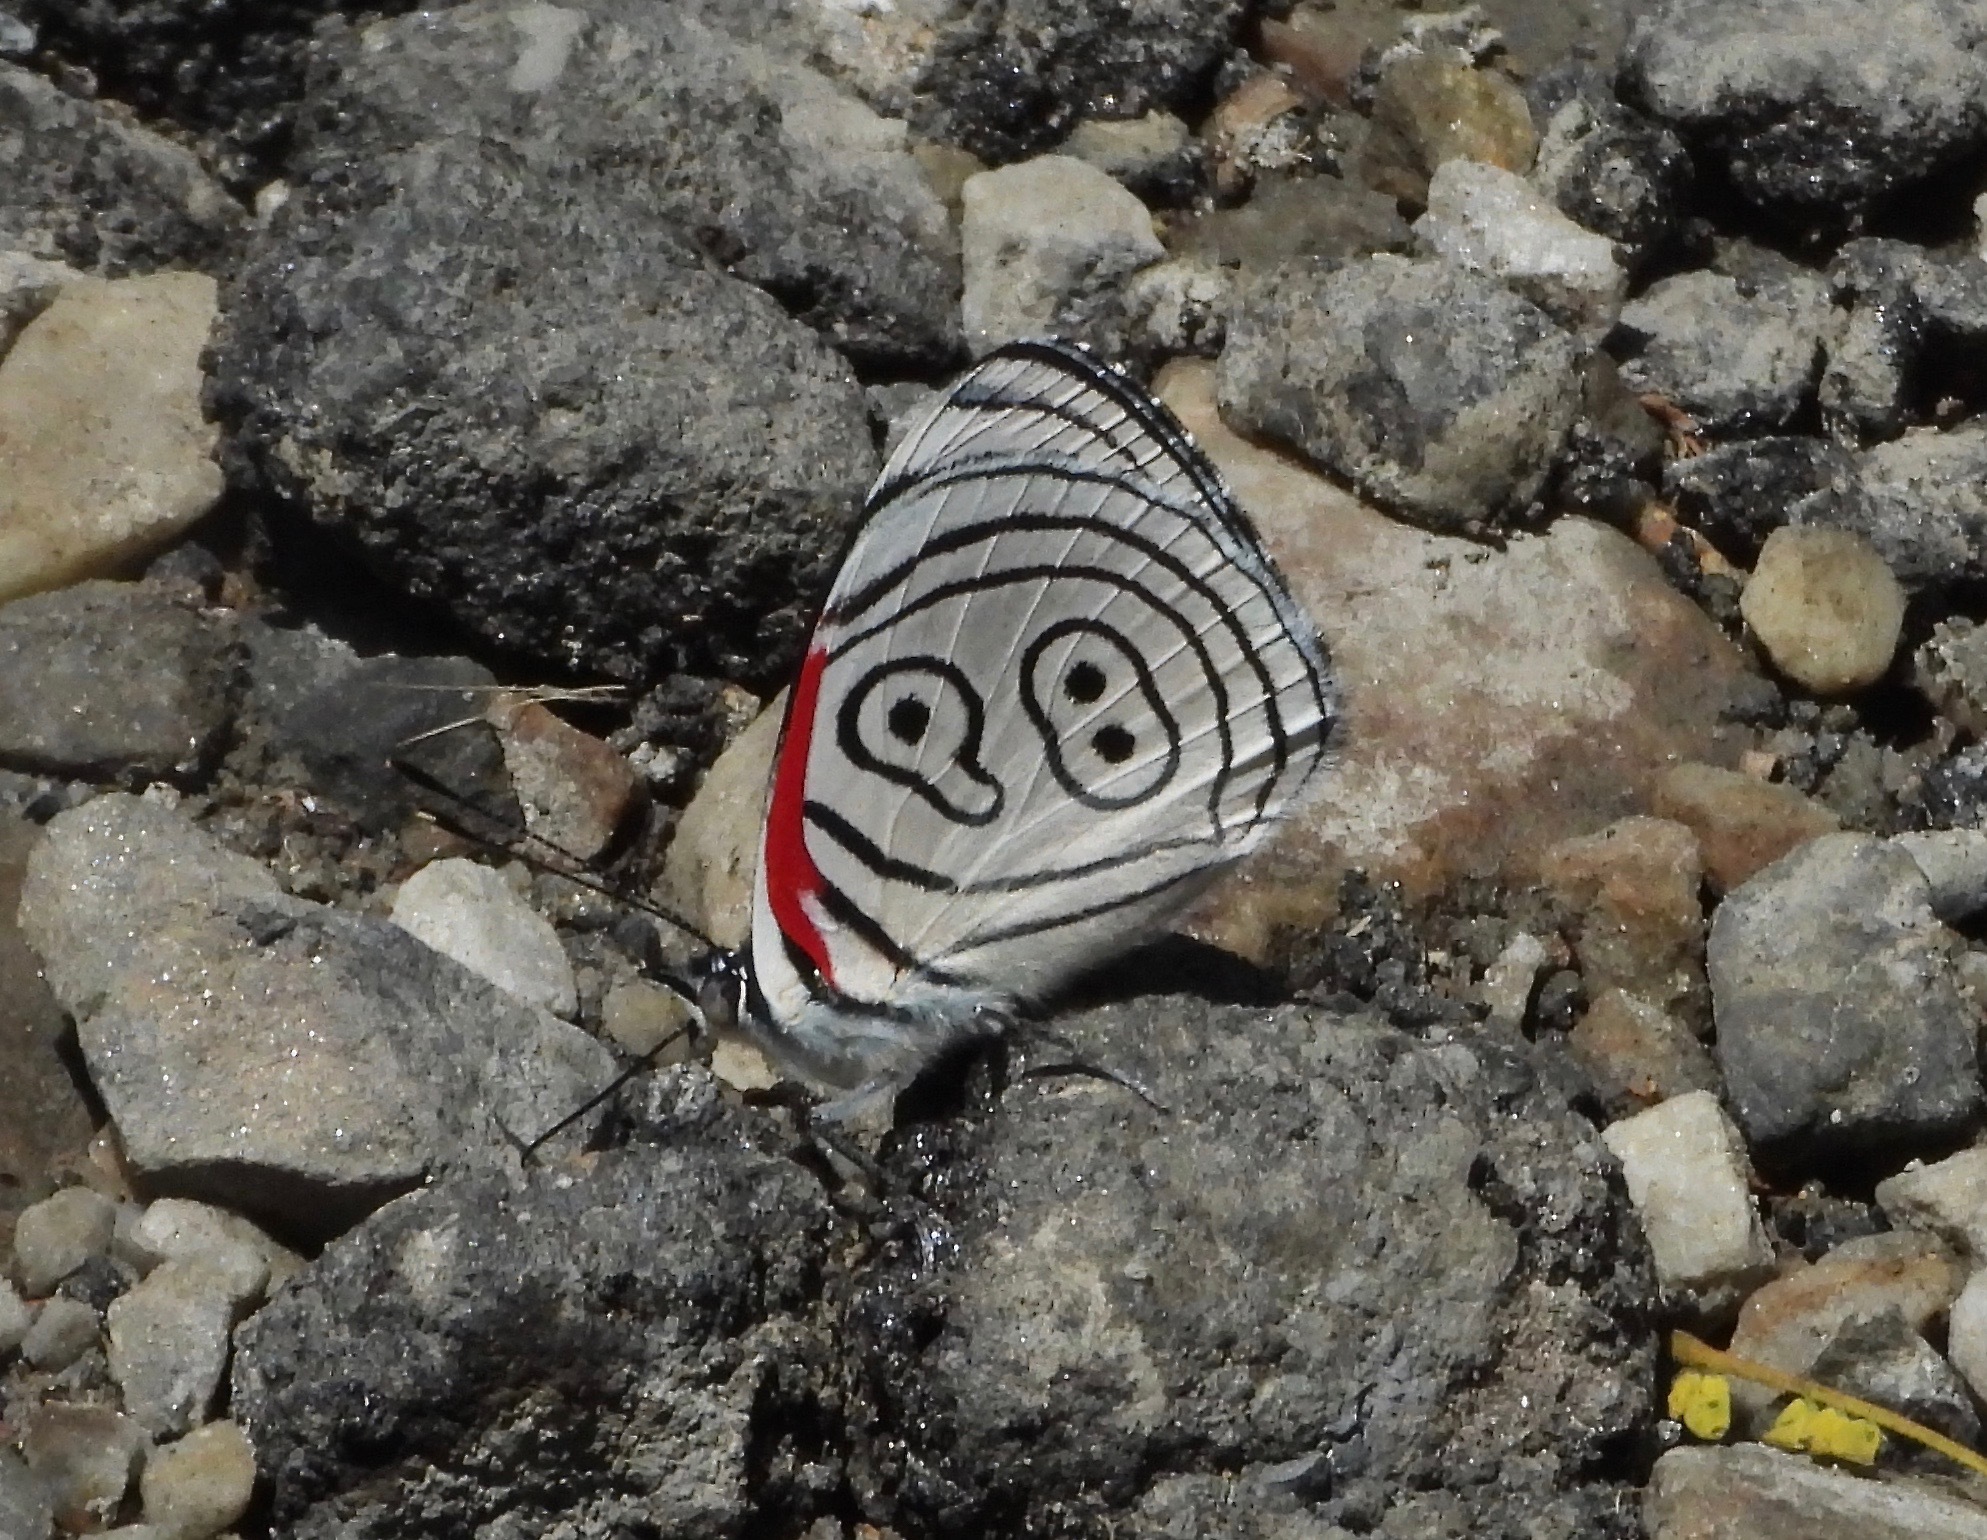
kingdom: Animalia
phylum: Arthropoda
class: Insecta
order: Lepidoptera
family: Nymphalidae
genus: Diaethria
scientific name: Diaethria euclides
